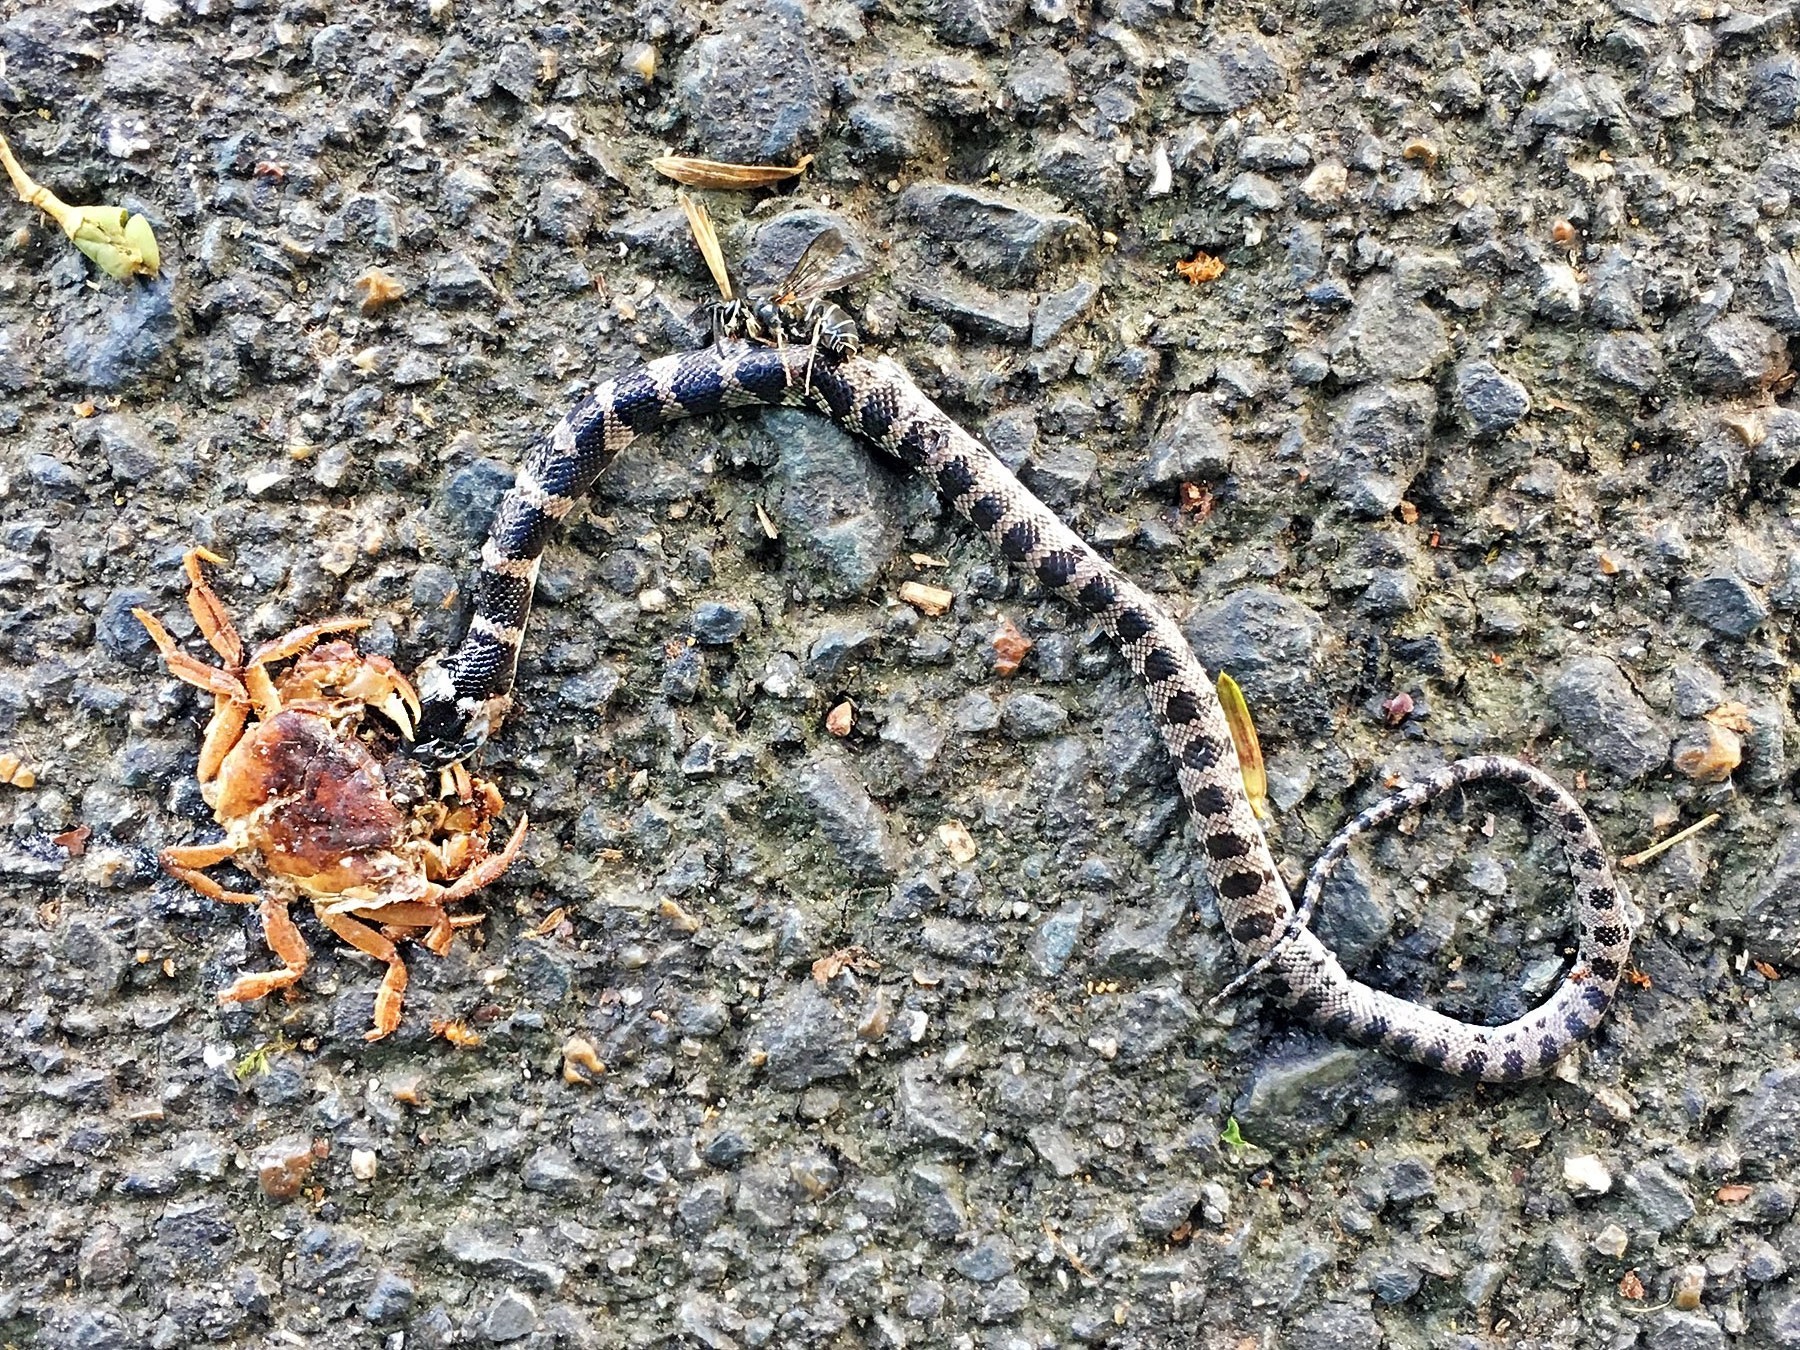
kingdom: Animalia
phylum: Arthropoda
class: Insecta
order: Hymenoptera
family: Vespidae
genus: Vespula
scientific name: Vespula flaviceps
